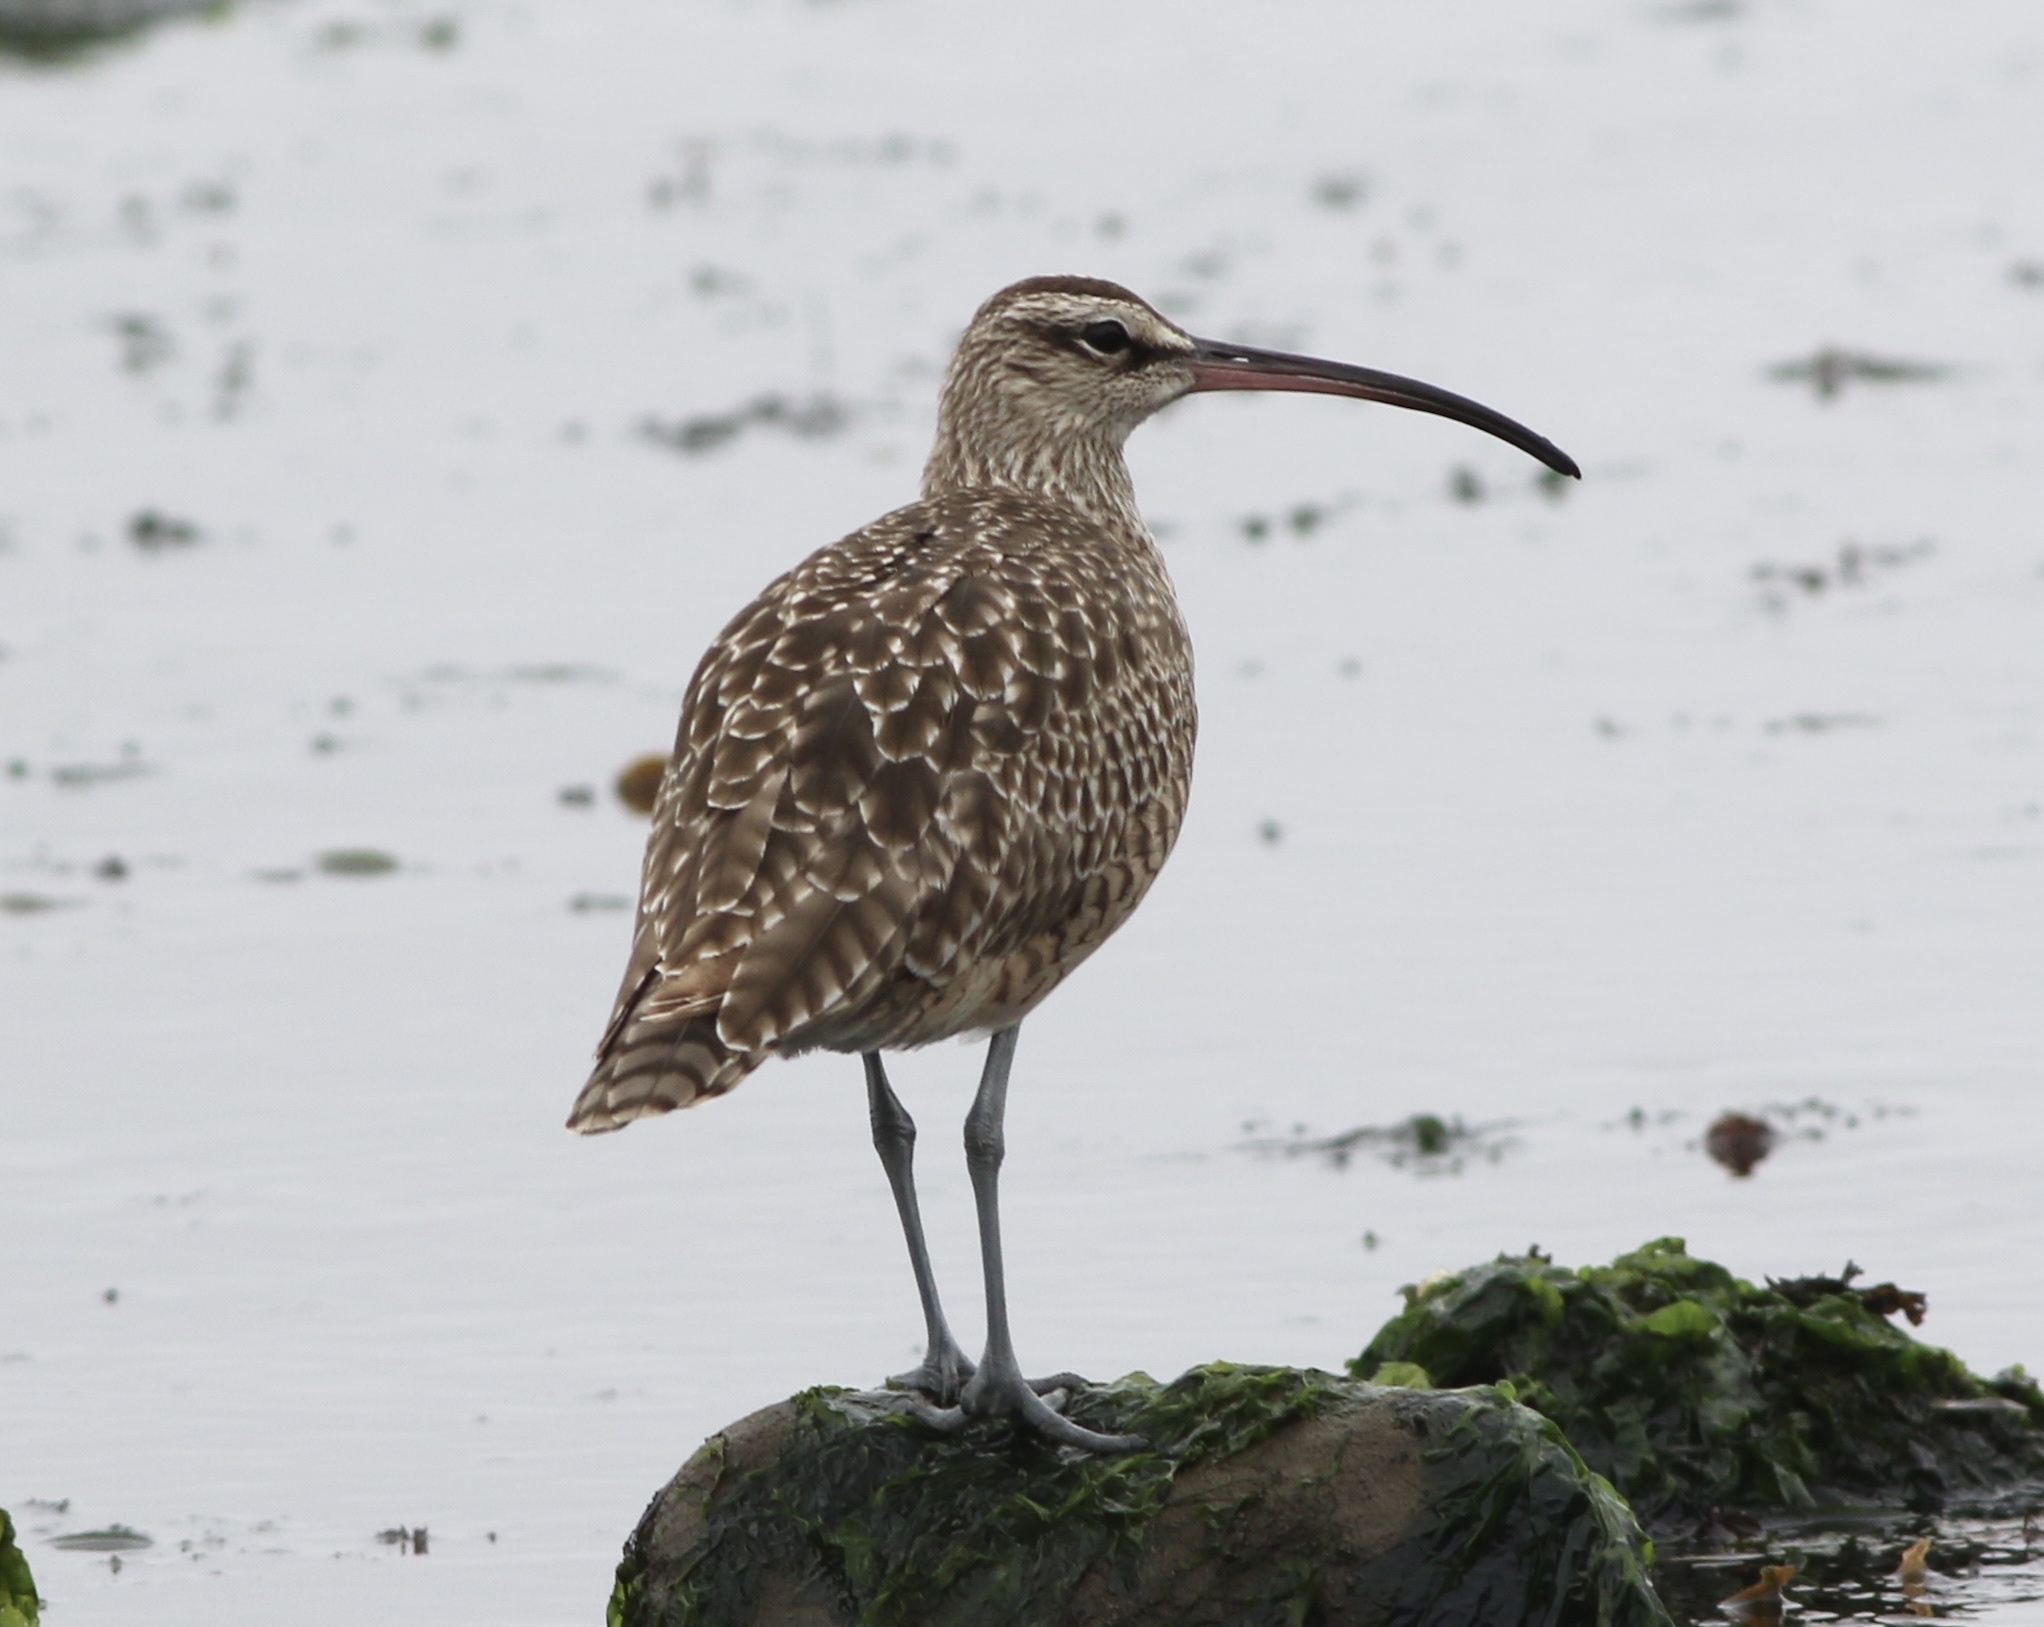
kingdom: Animalia
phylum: Chordata
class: Aves
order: Charadriiformes
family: Scolopacidae
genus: Numenius
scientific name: Numenius phaeopus
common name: Whimbrel
